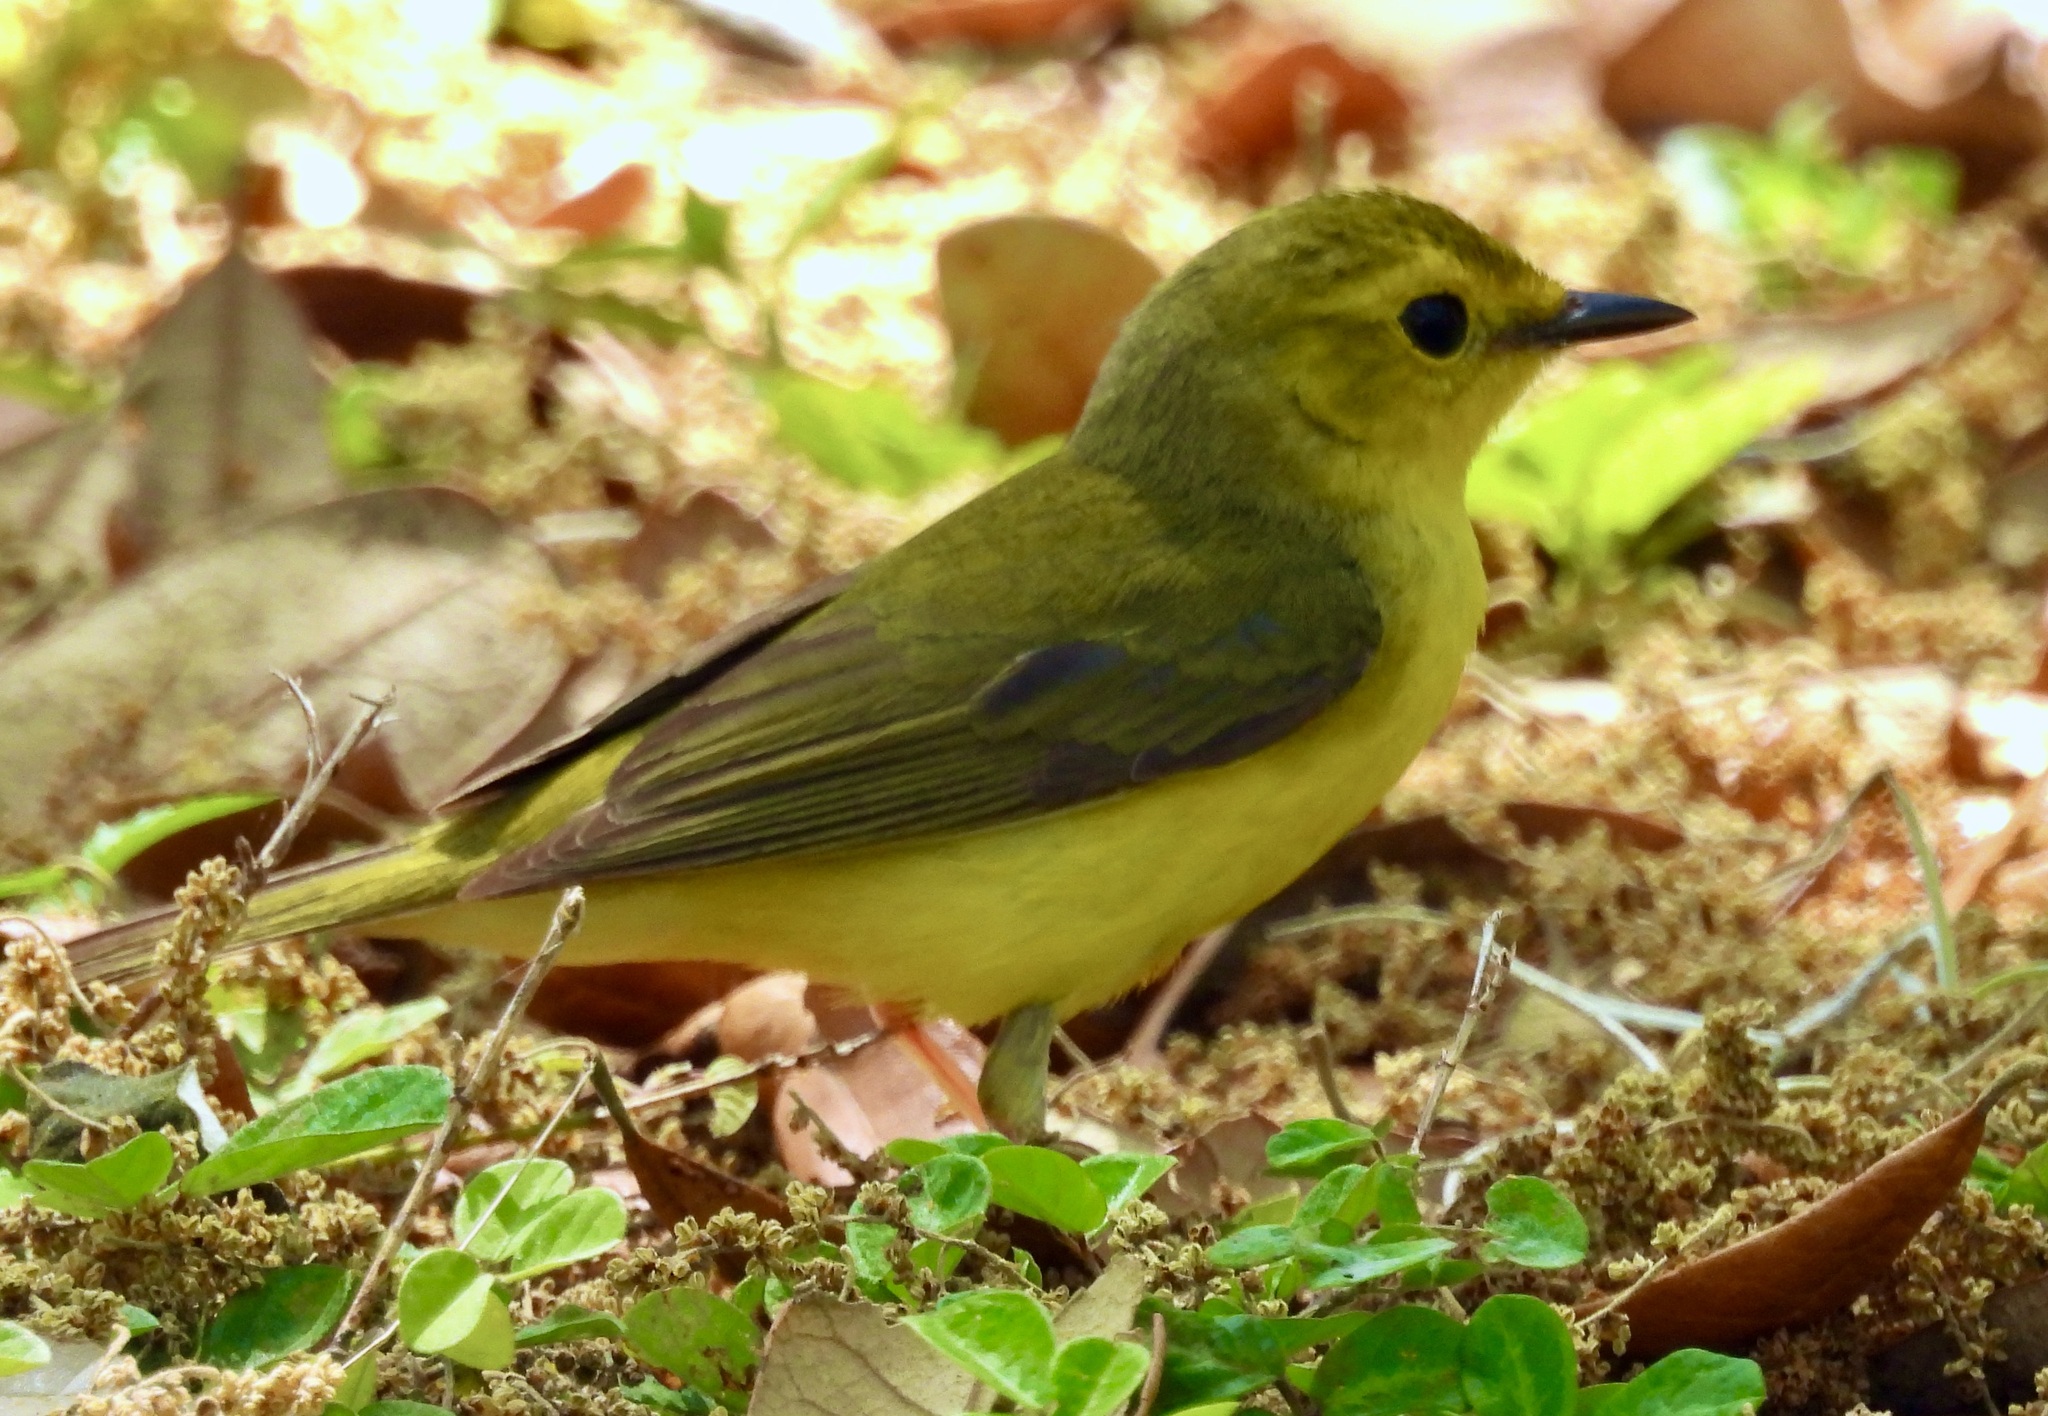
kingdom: Animalia
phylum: Chordata
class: Aves
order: Passeriformes
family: Parulidae
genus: Setophaga
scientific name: Setophaga citrina
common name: Hooded warbler
